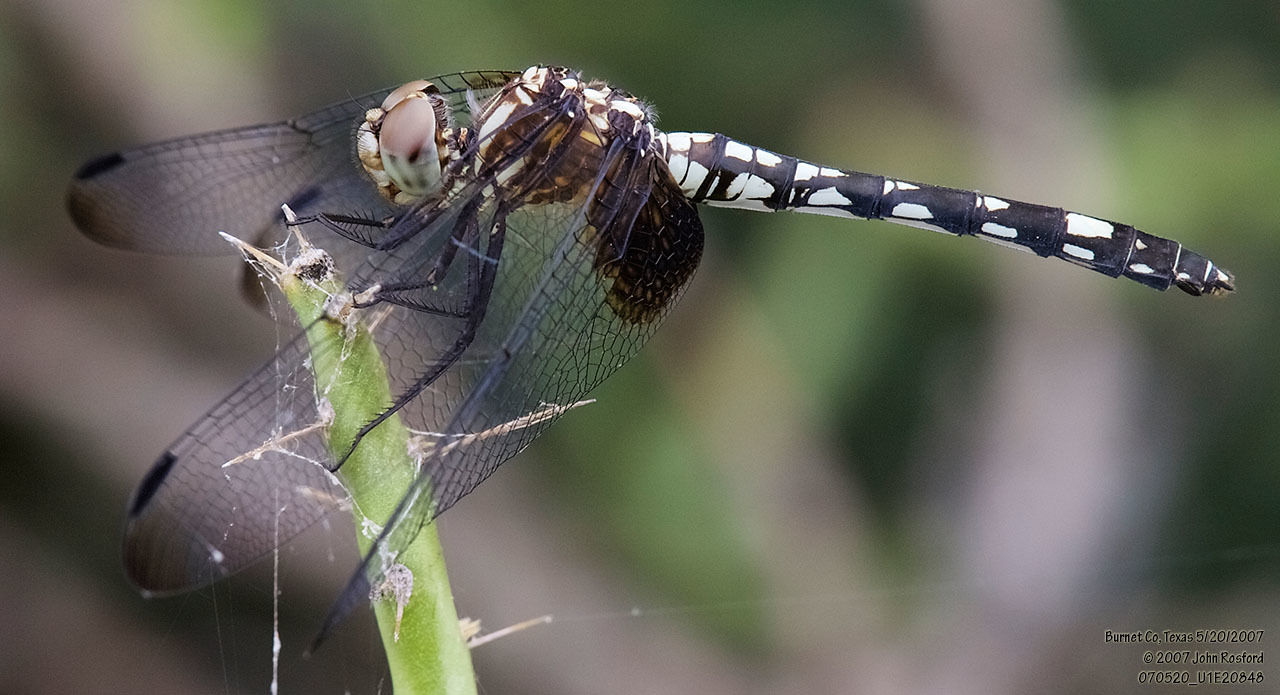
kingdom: Animalia
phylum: Arthropoda
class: Insecta
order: Odonata
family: Libellulidae
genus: Dythemis
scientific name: Dythemis fugax
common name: Checkered setwing
